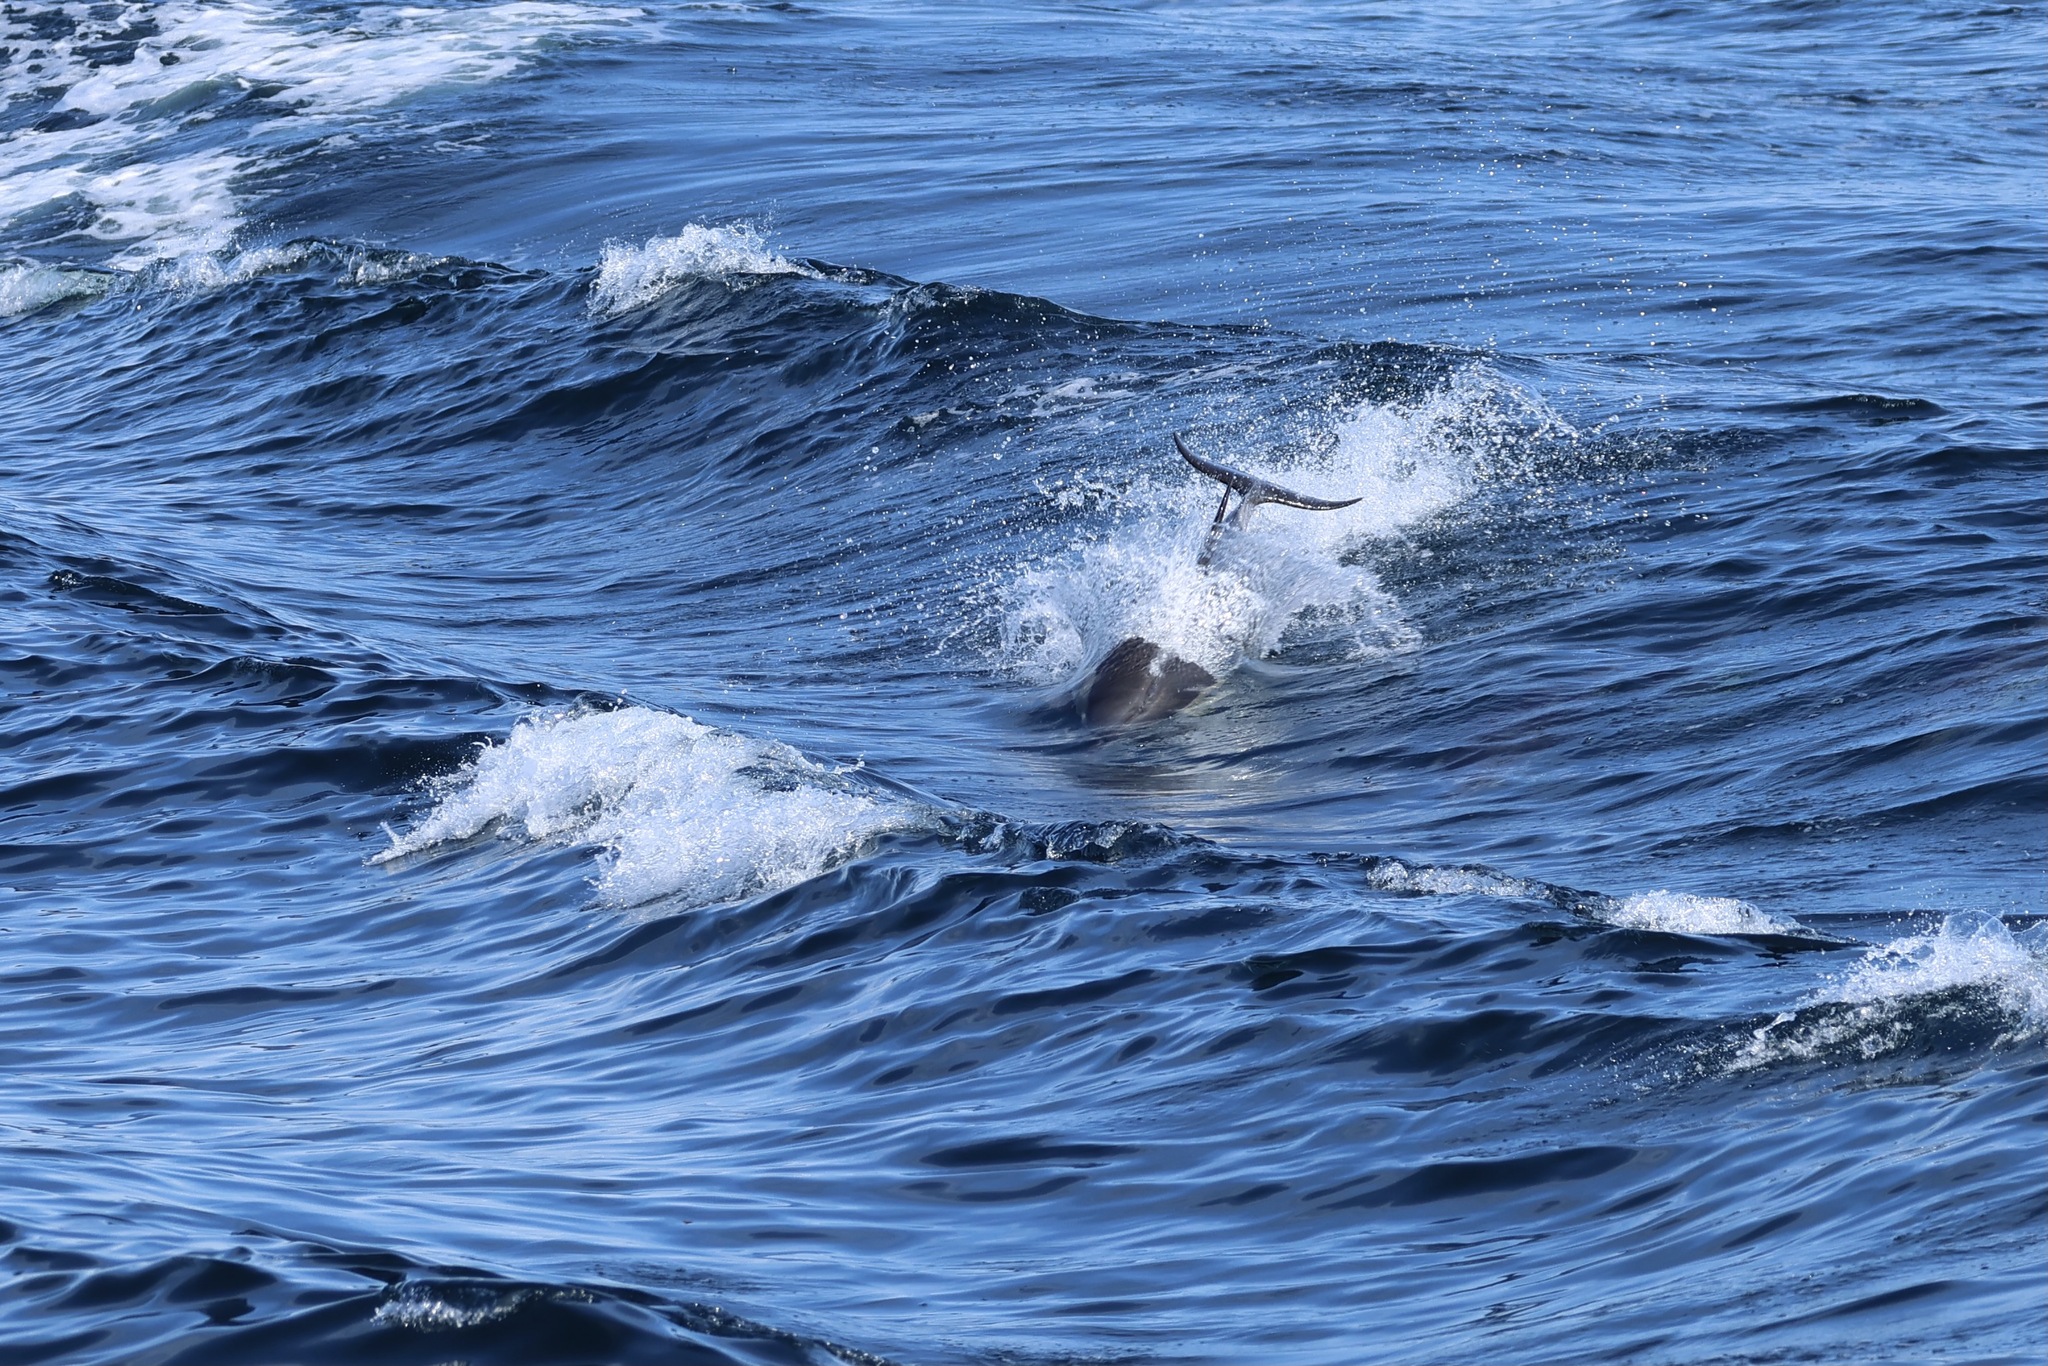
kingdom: Animalia
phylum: Chordata
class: Mammalia
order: Cetacea
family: Delphinidae
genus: Delphinus
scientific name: Delphinus delphis
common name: Common dolphin
